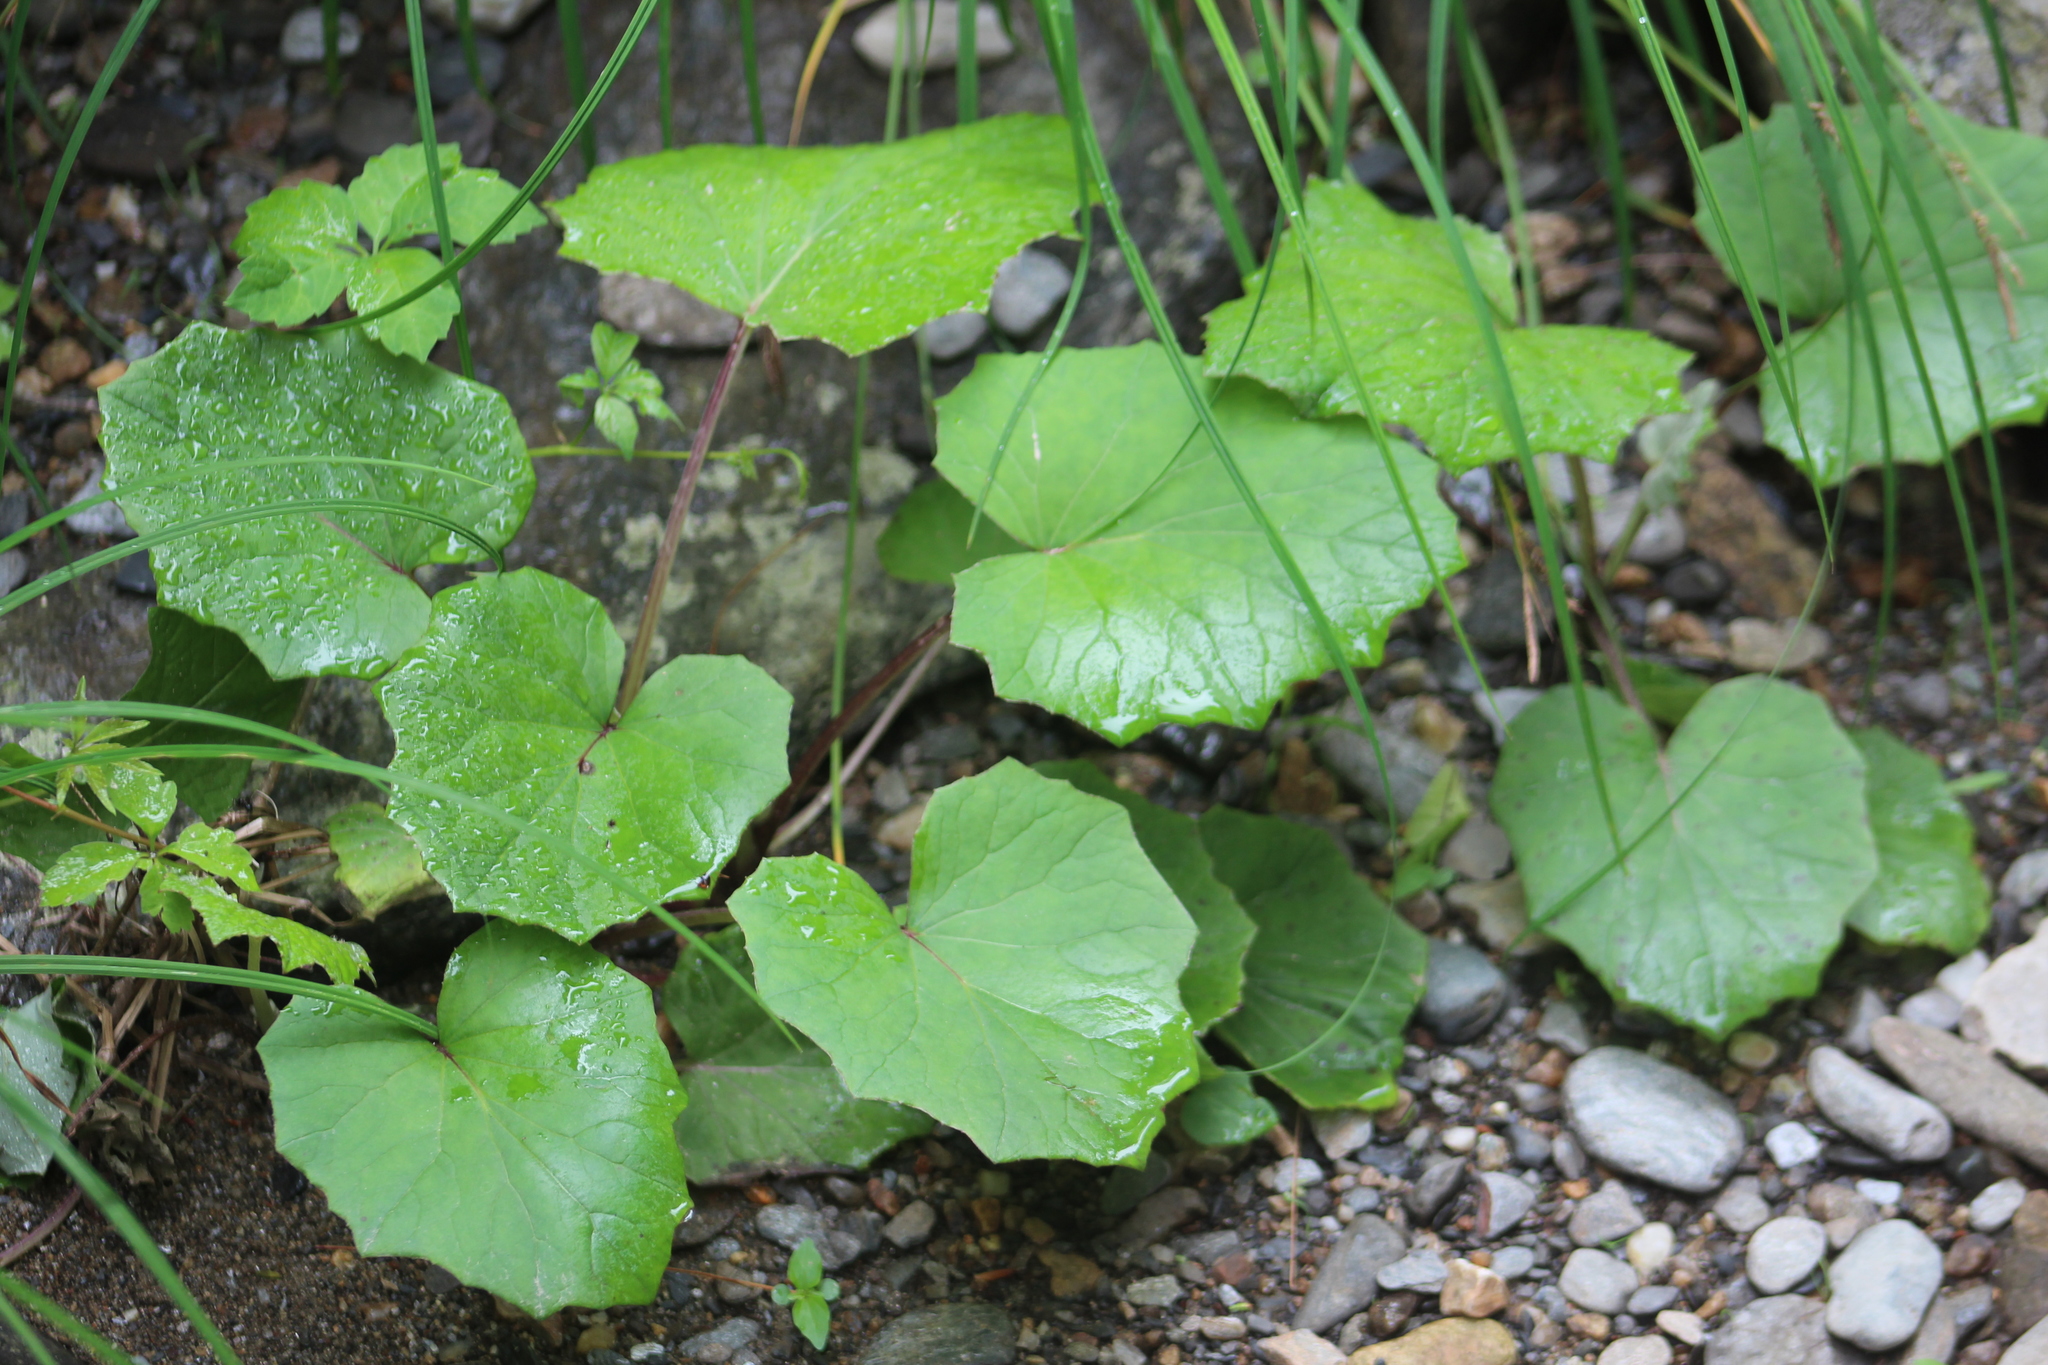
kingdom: Plantae
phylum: Tracheophyta
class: Magnoliopsida
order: Asterales
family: Asteraceae
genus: Tussilago
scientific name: Tussilago farfara
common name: Coltsfoot
